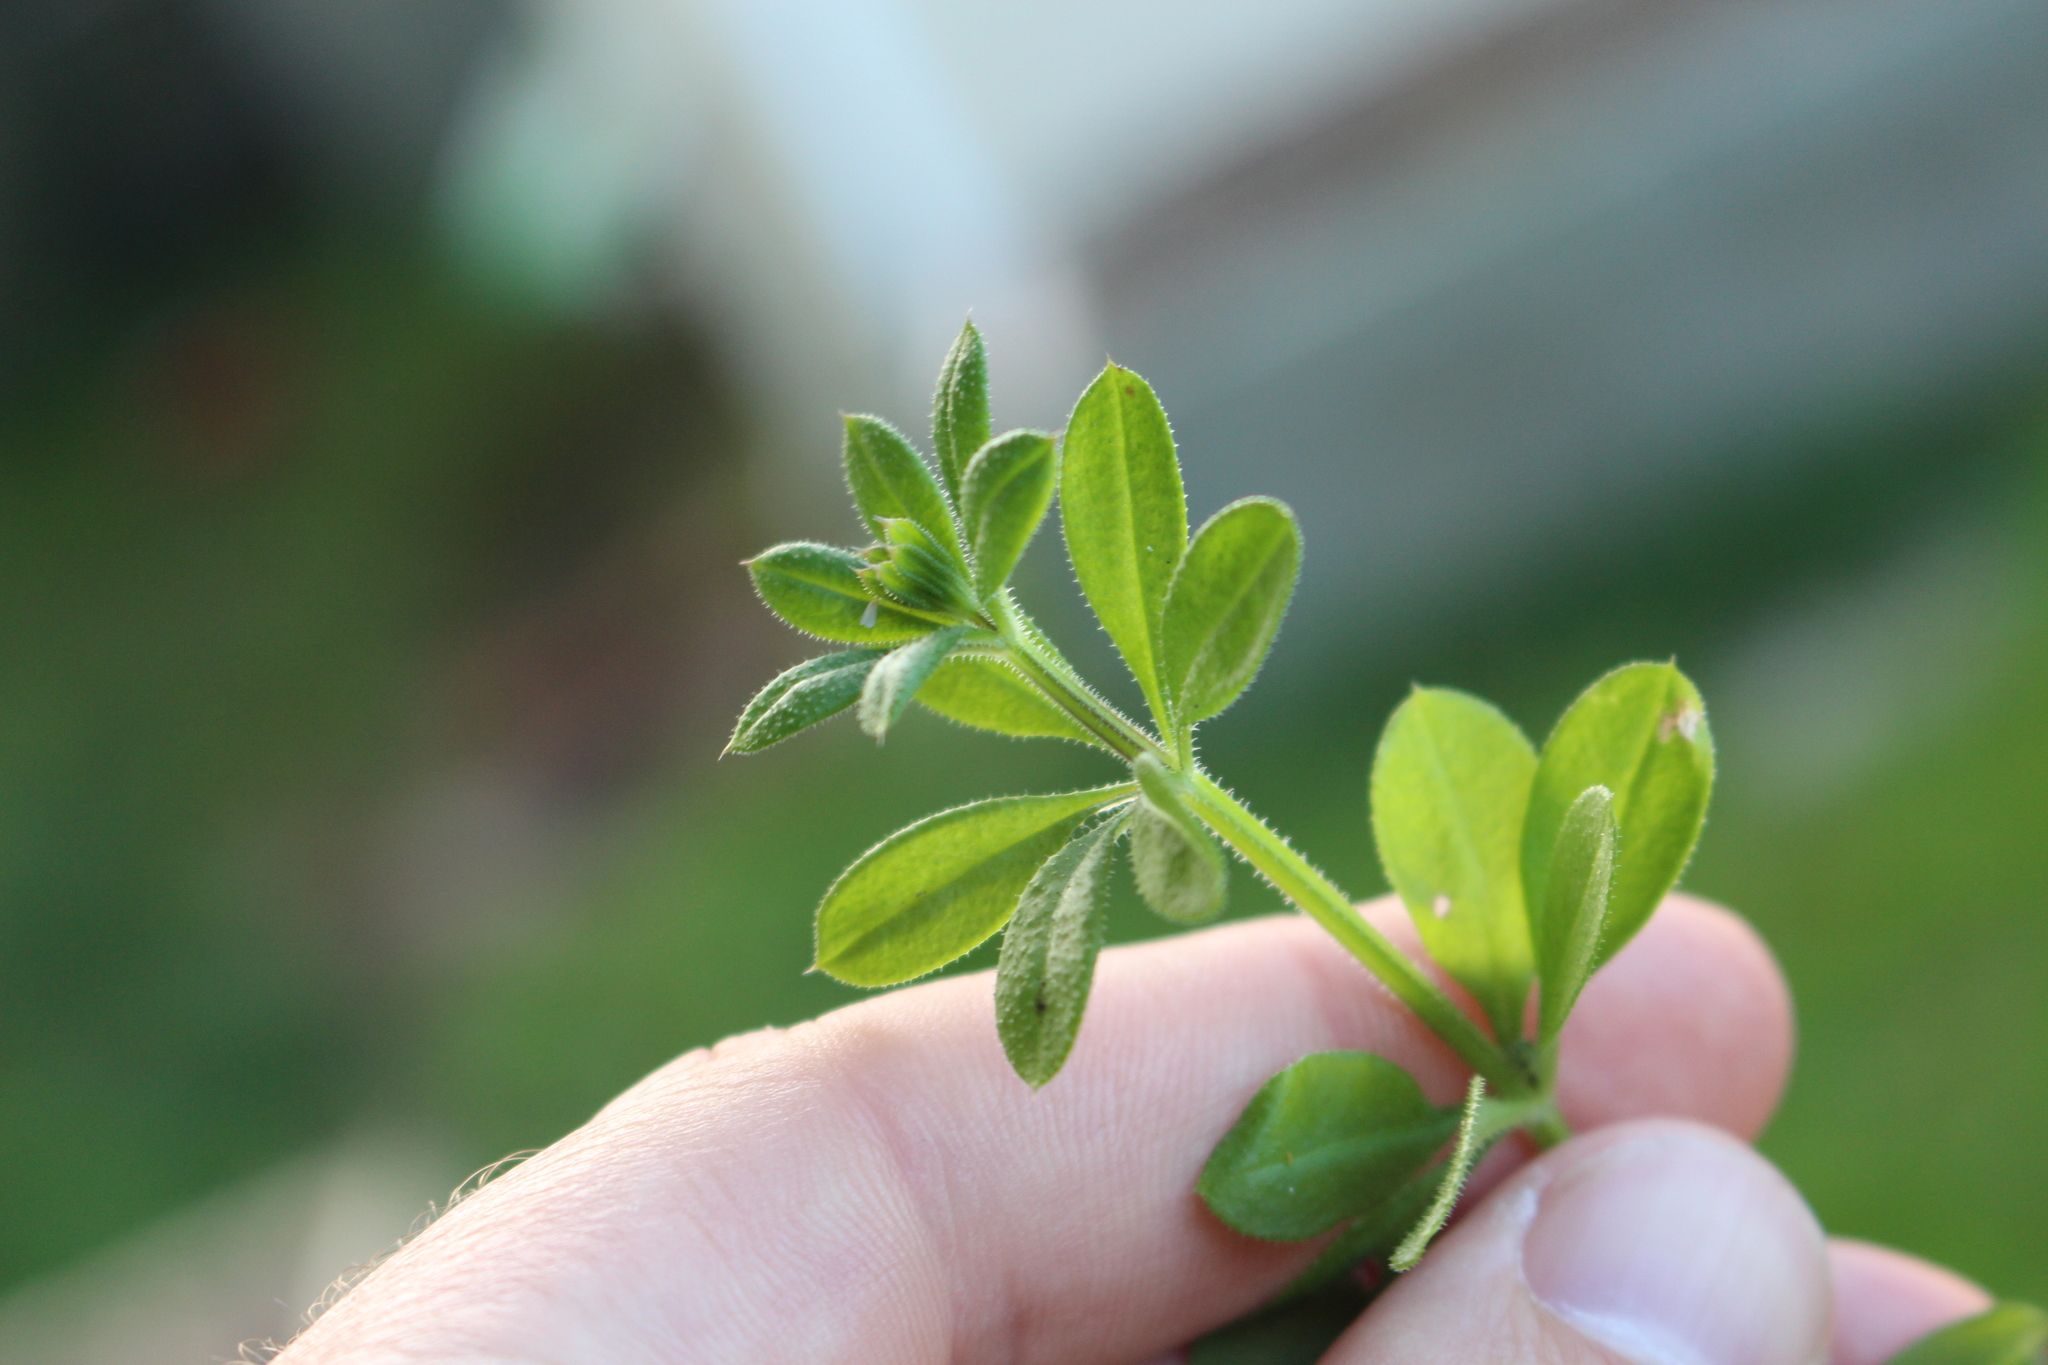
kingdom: Plantae
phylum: Tracheophyta
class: Magnoliopsida
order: Gentianales
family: Rubiaceae
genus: Galium
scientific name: Galium aparine
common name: Cleavers
